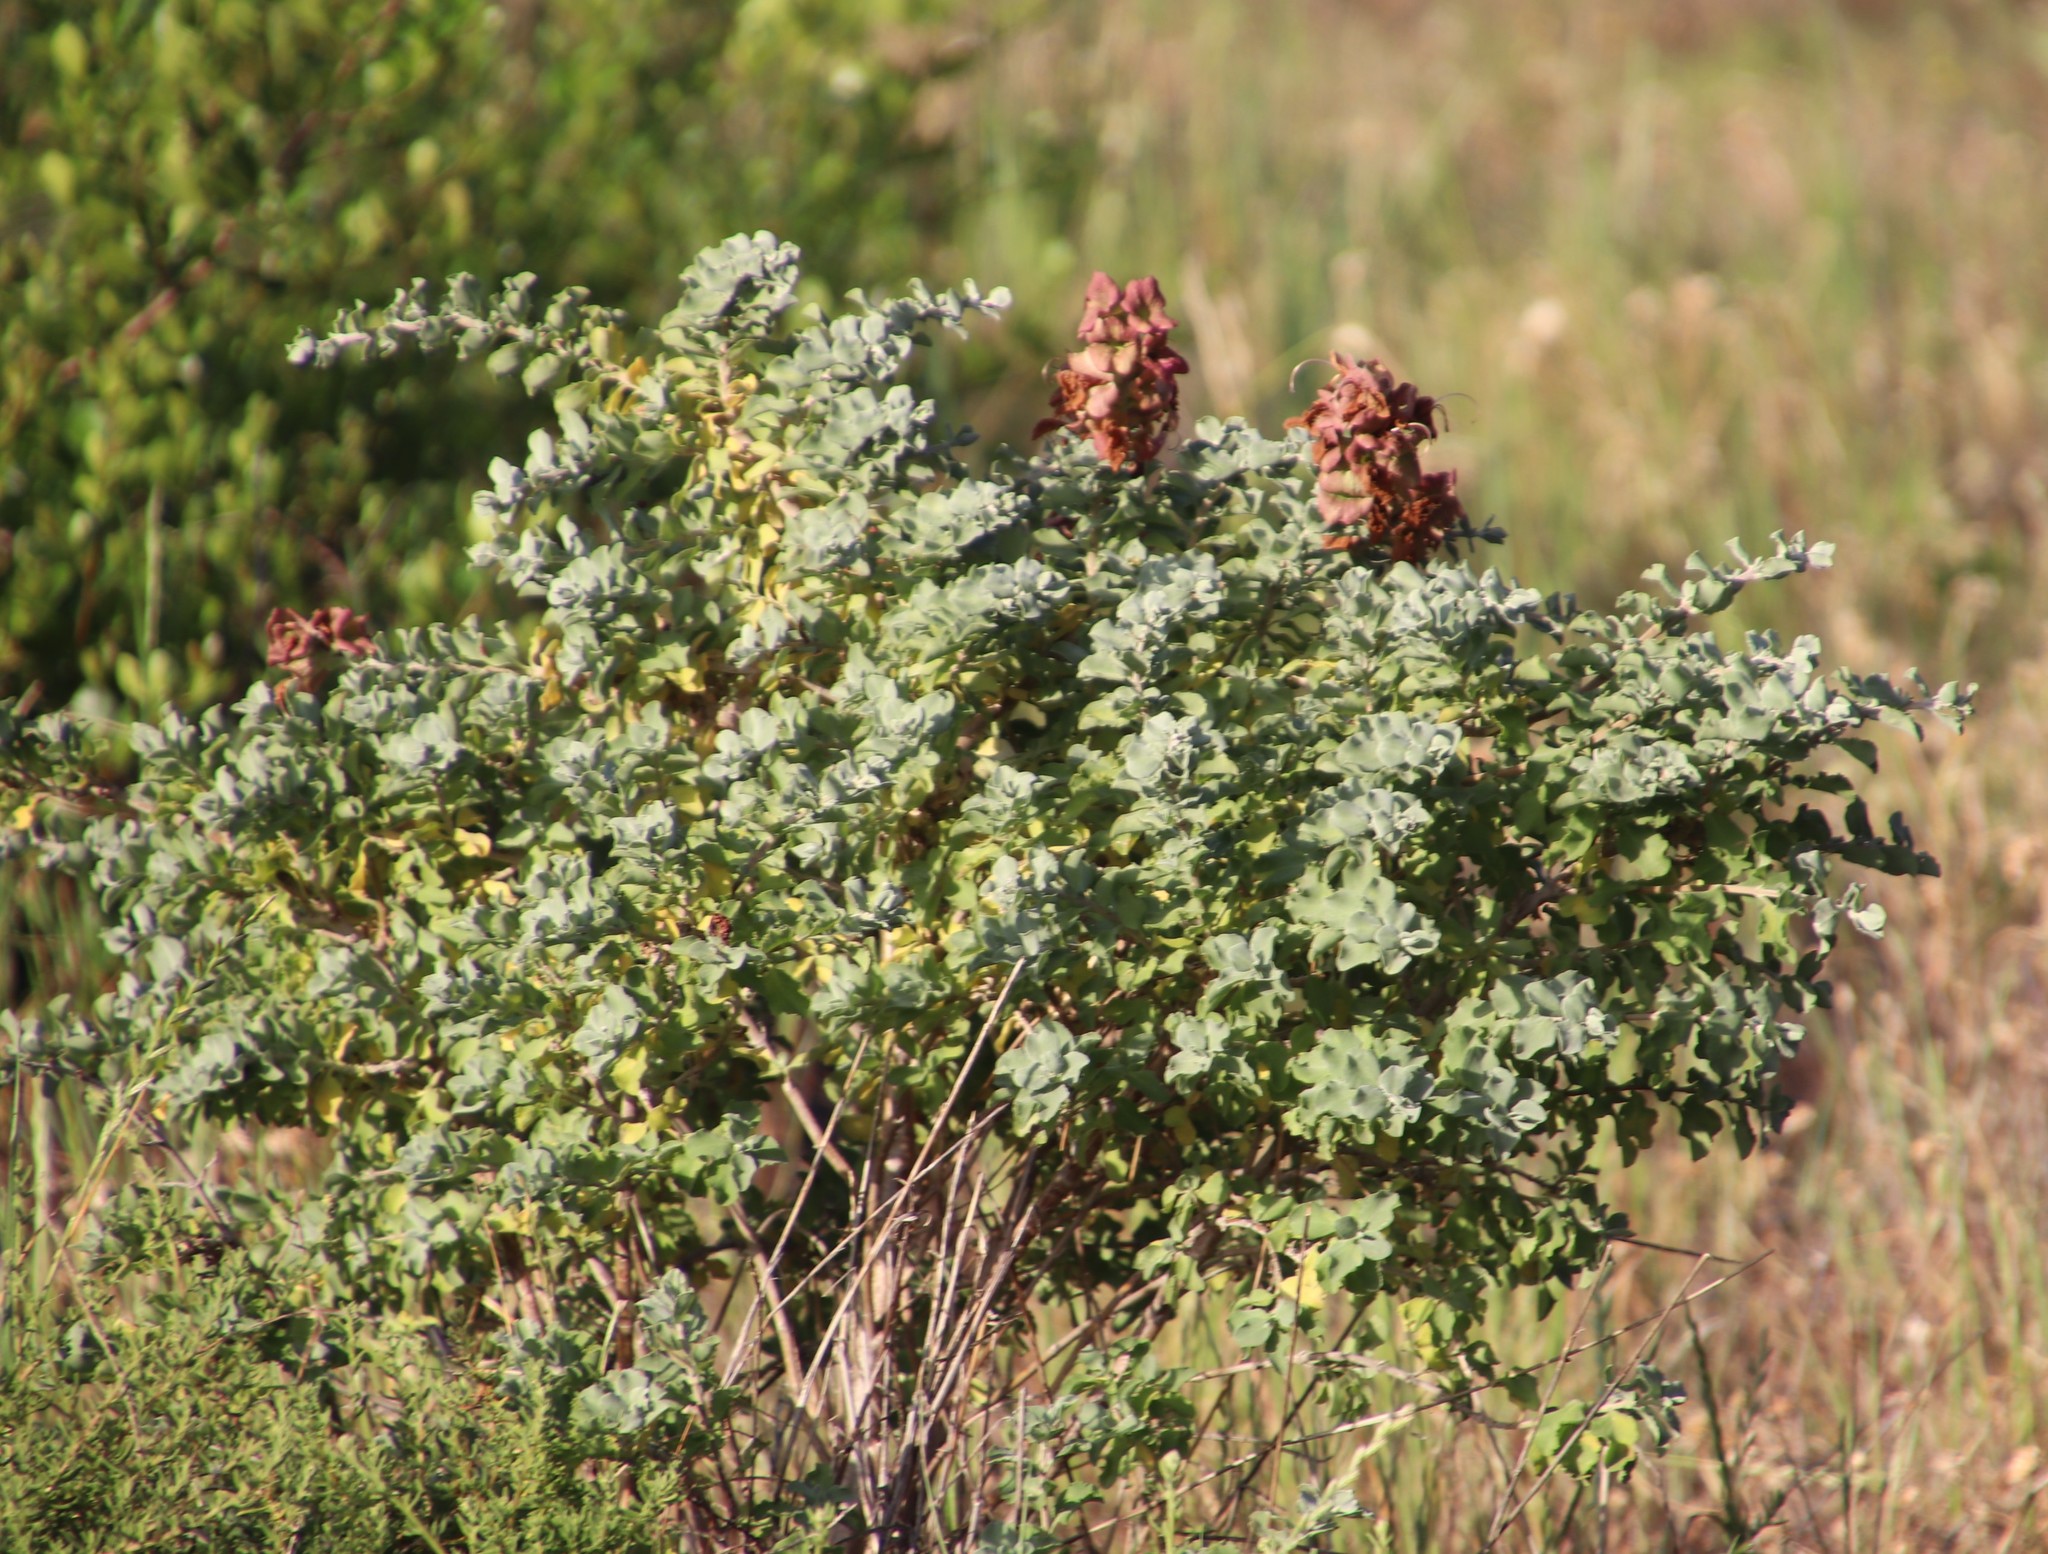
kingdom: Plantae
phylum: Tracheophyta
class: Magnoliopsida
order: Lamiales
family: Lamiaceae
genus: Salvia
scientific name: Salvia aurea
